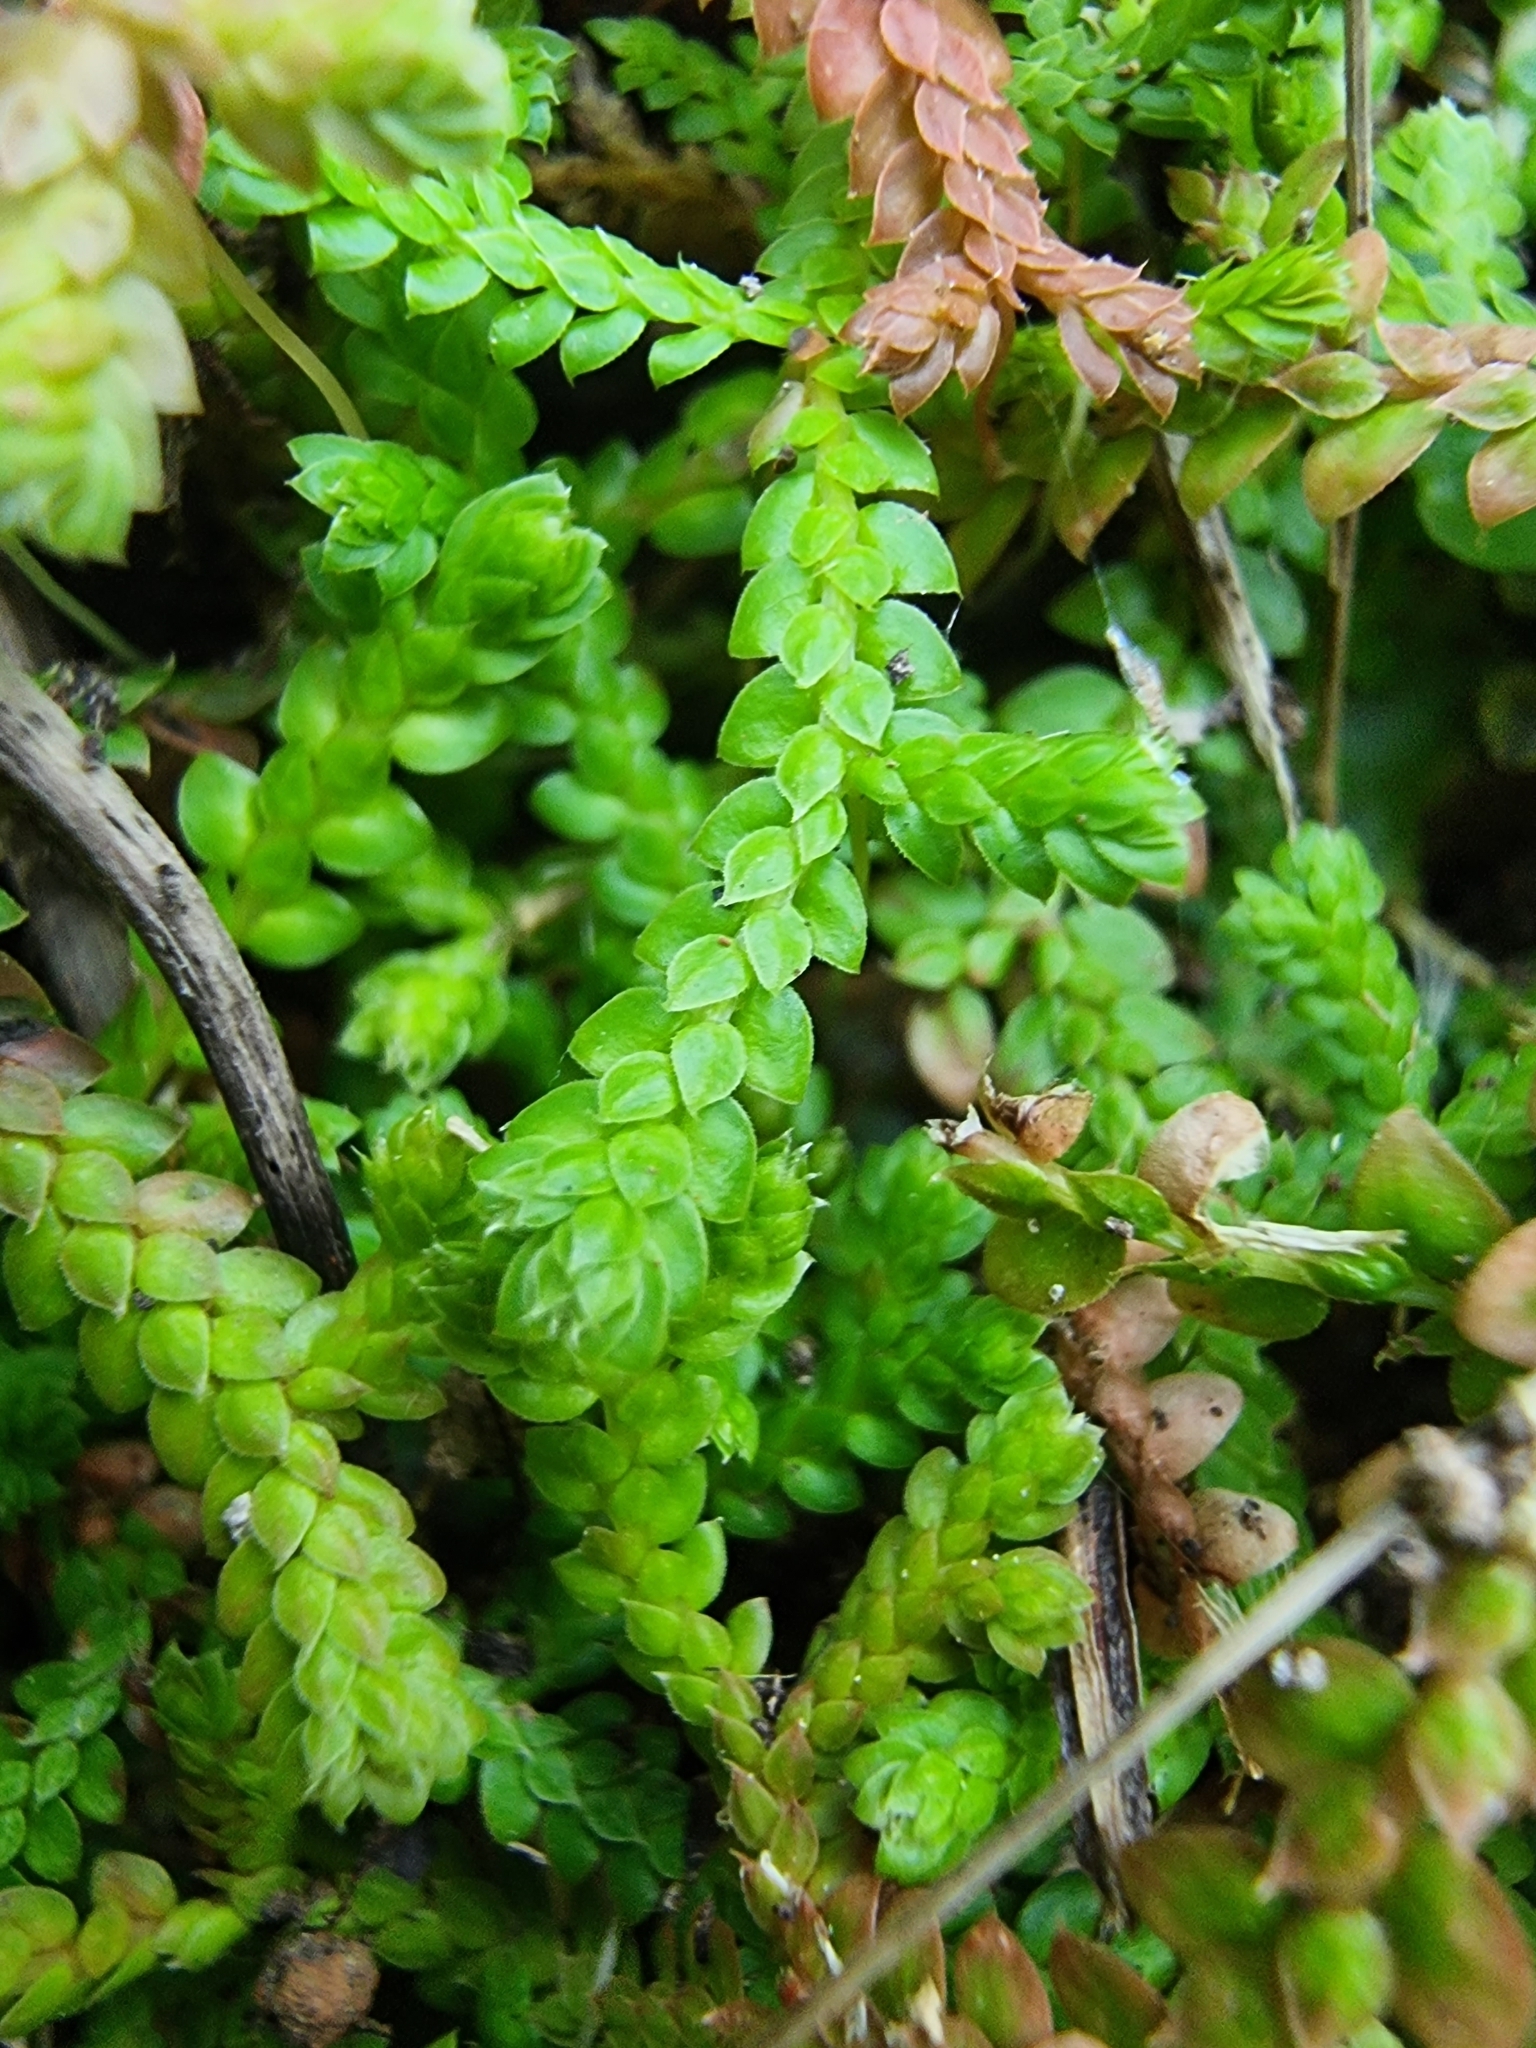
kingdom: Plantae
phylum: Tracheophyta
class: Lycopodiopsida
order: Selaginellales
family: Selaginellaceae
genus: Selaginella
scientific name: Selaginella denticulata
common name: Toothed-leaved clubmoss
